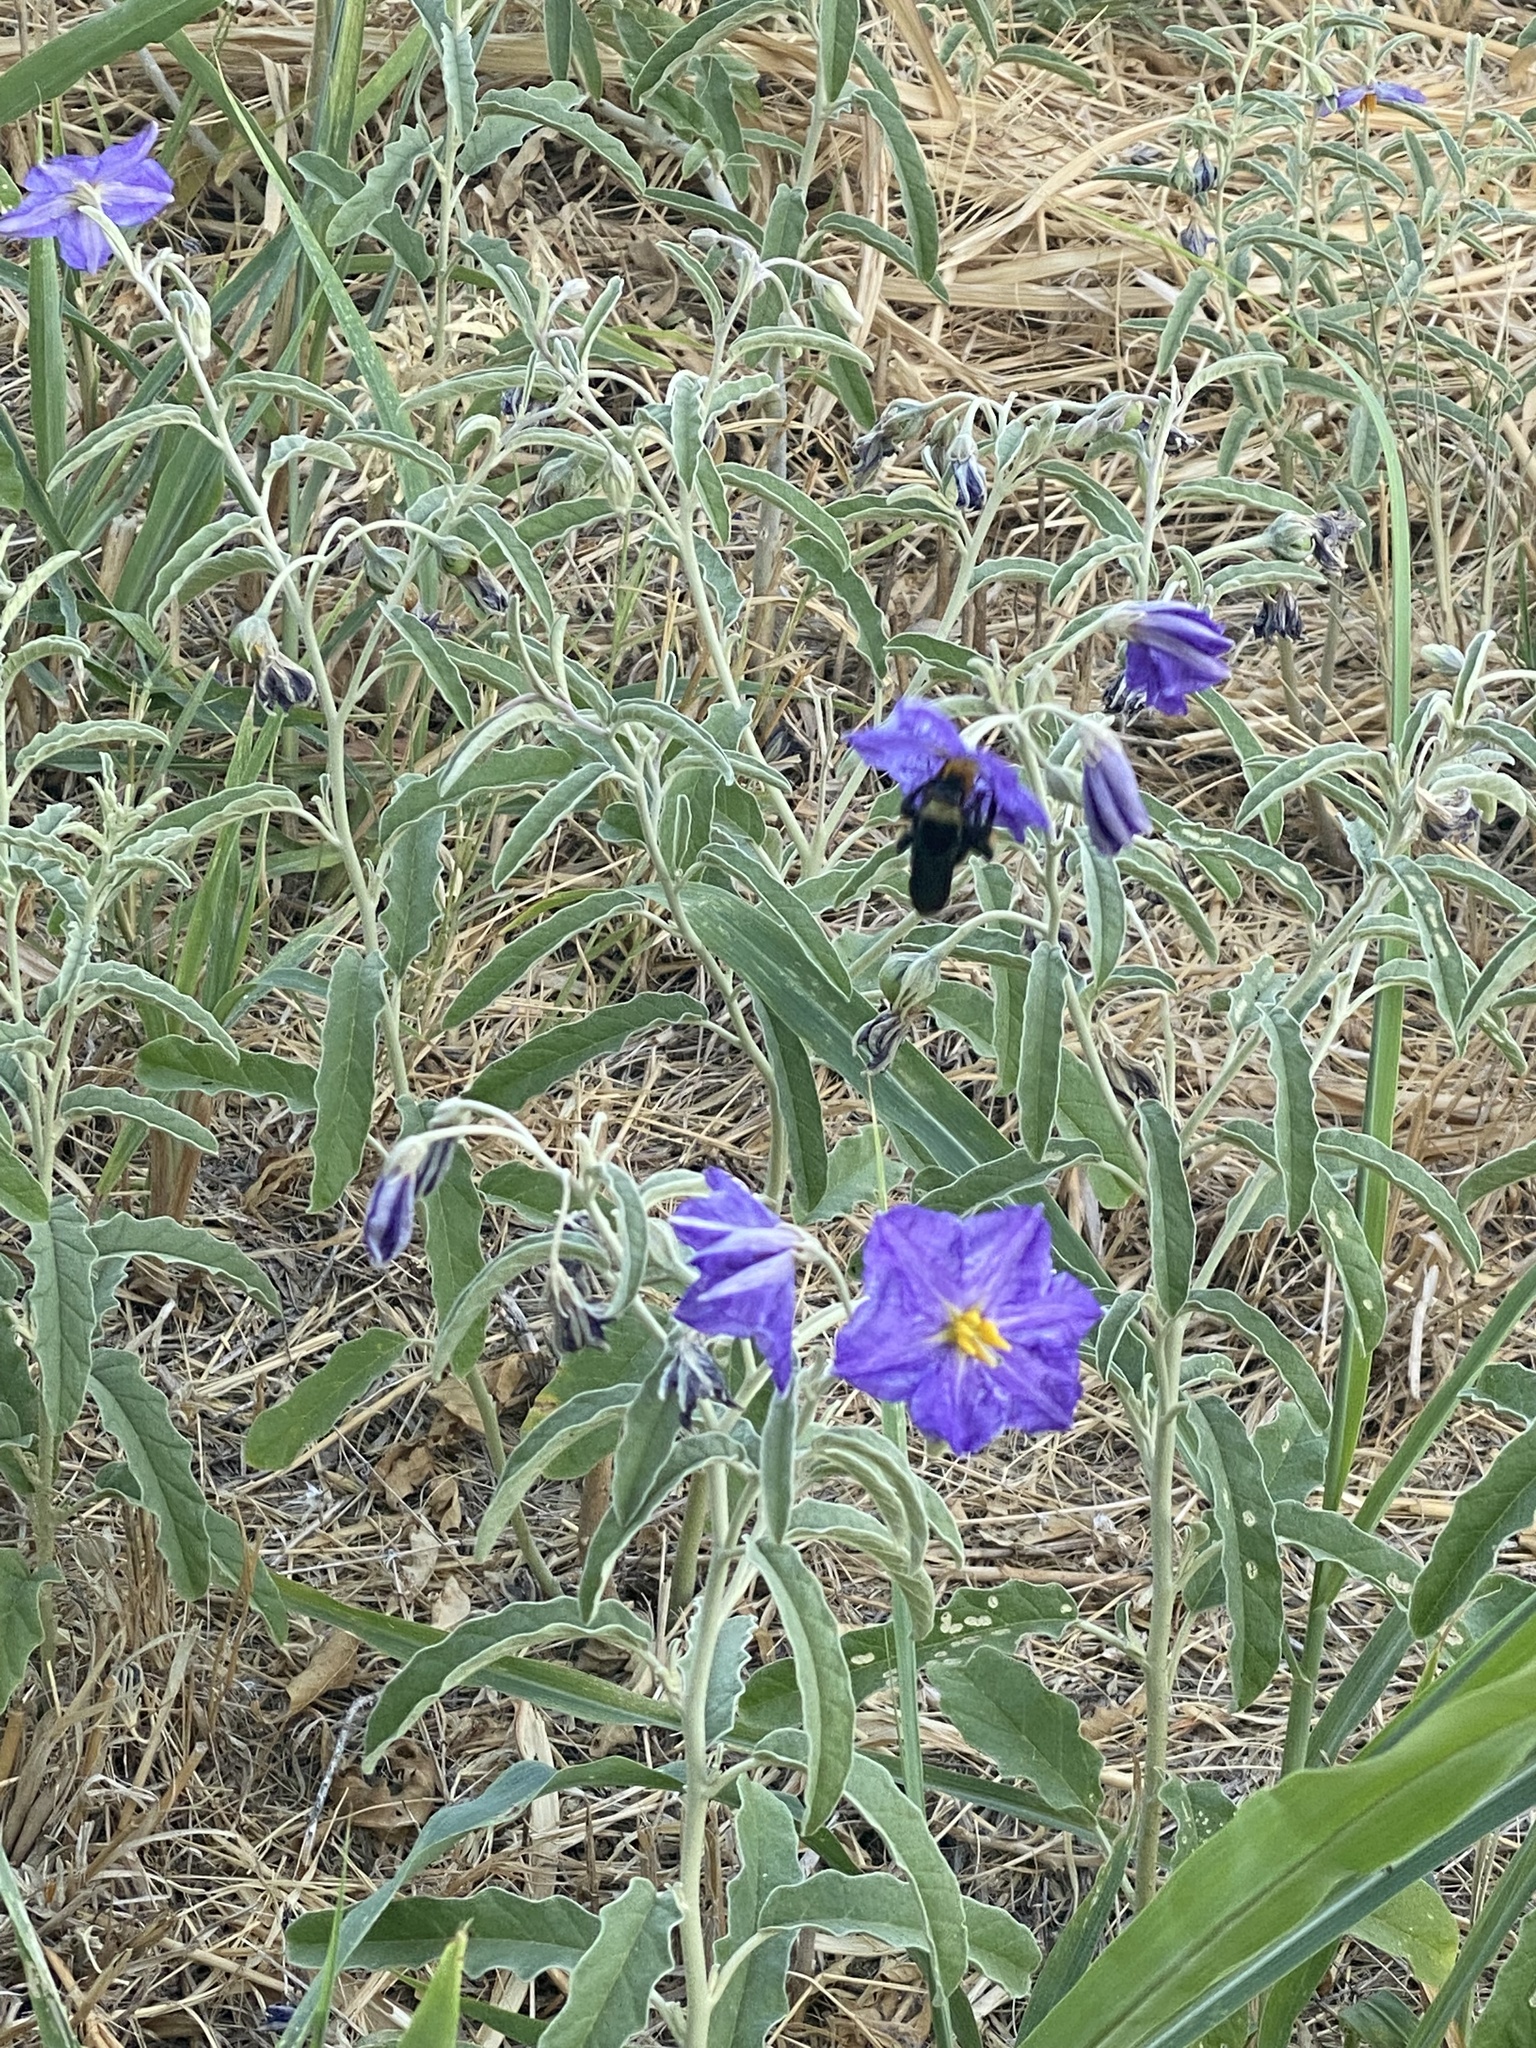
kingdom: Animalia
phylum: Arthropoda
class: Insecta
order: Hymenoptera
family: Apidae
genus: Bombus
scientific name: Bombus pensylvanicus
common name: Bumble bee
